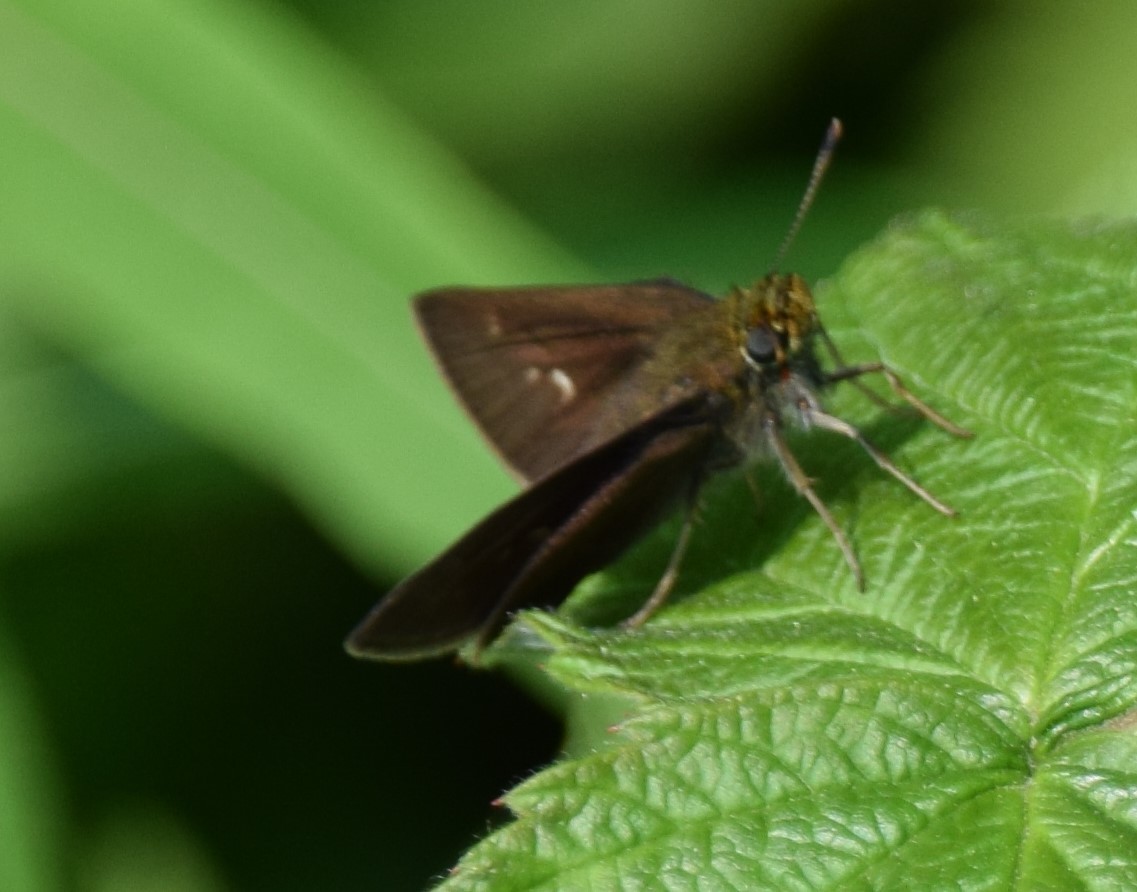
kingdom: Animalia
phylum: Arthropoda
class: Insecta
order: Lepidoptera
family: Hesperiidae
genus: Euphyes
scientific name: Euphyes vestris
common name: Dun skipper
